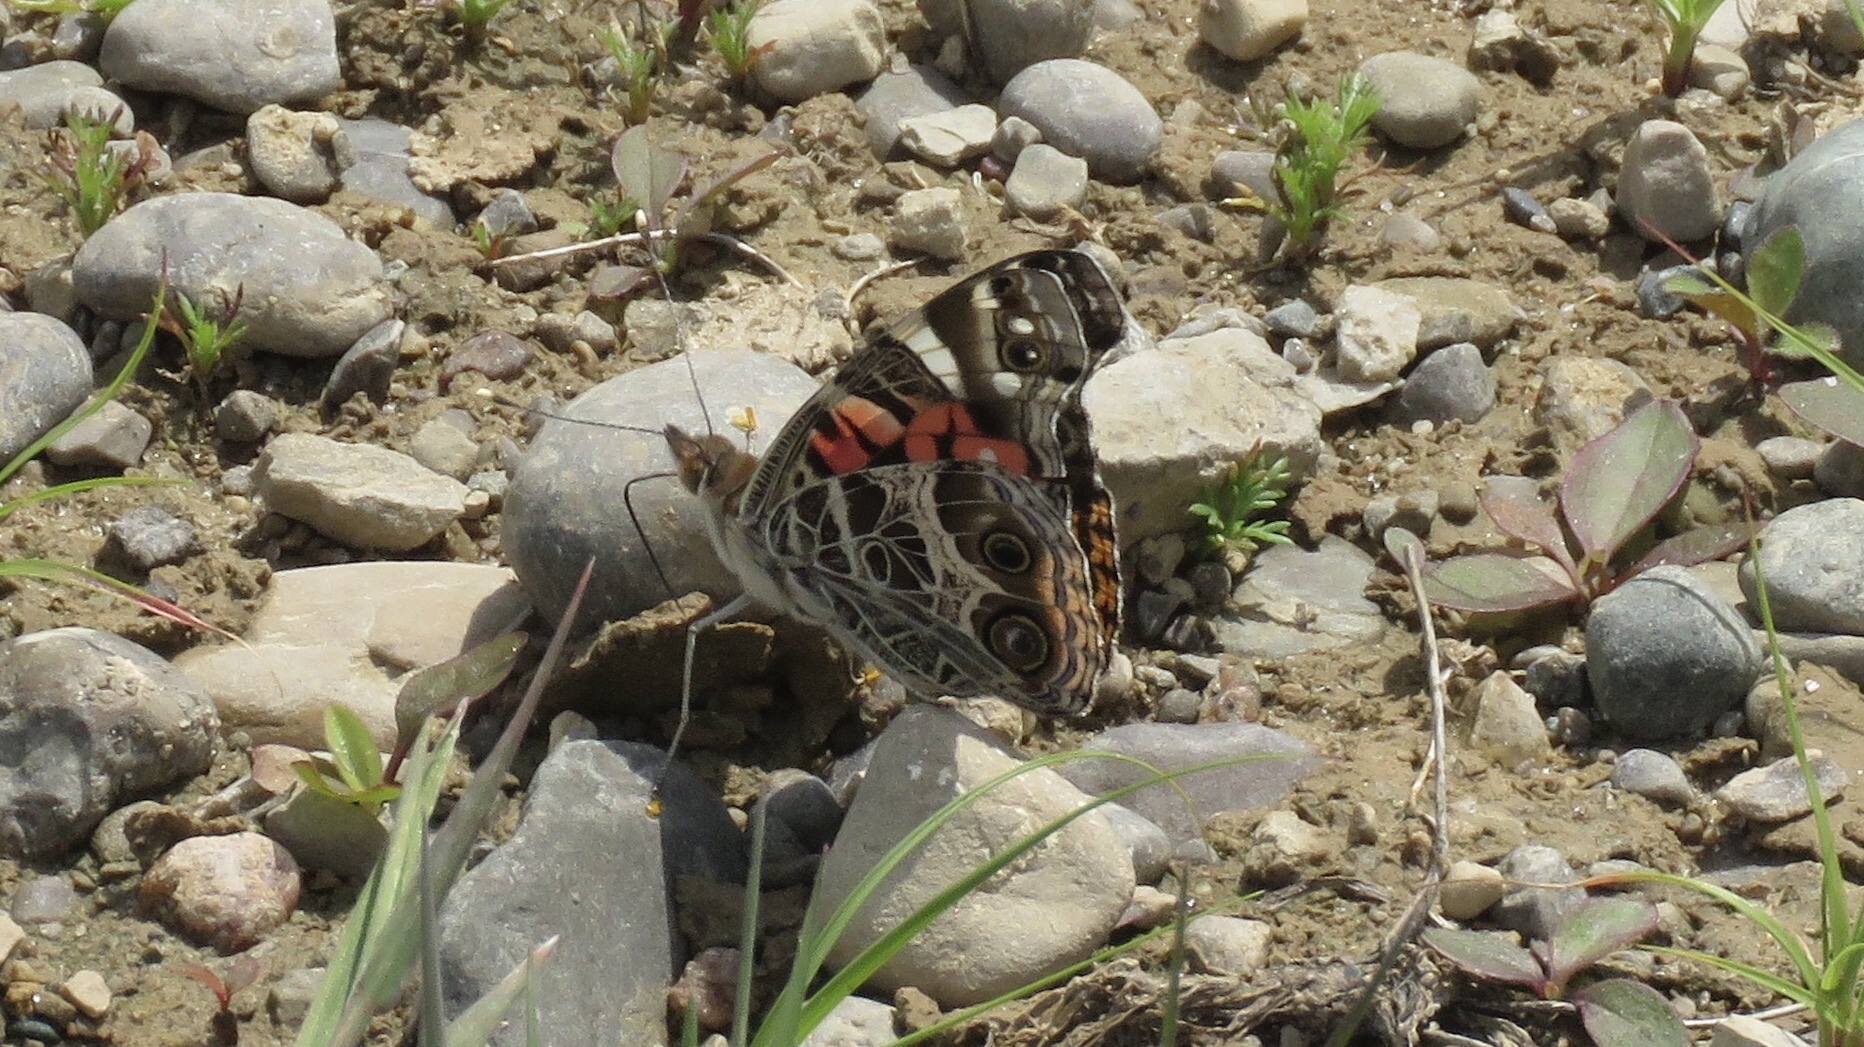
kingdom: Animalia
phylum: Arthropoda
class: Insecta
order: Lepidoptera
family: Nymphalidae
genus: Vanessa
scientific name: Vanessa virginiensis
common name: American lady
